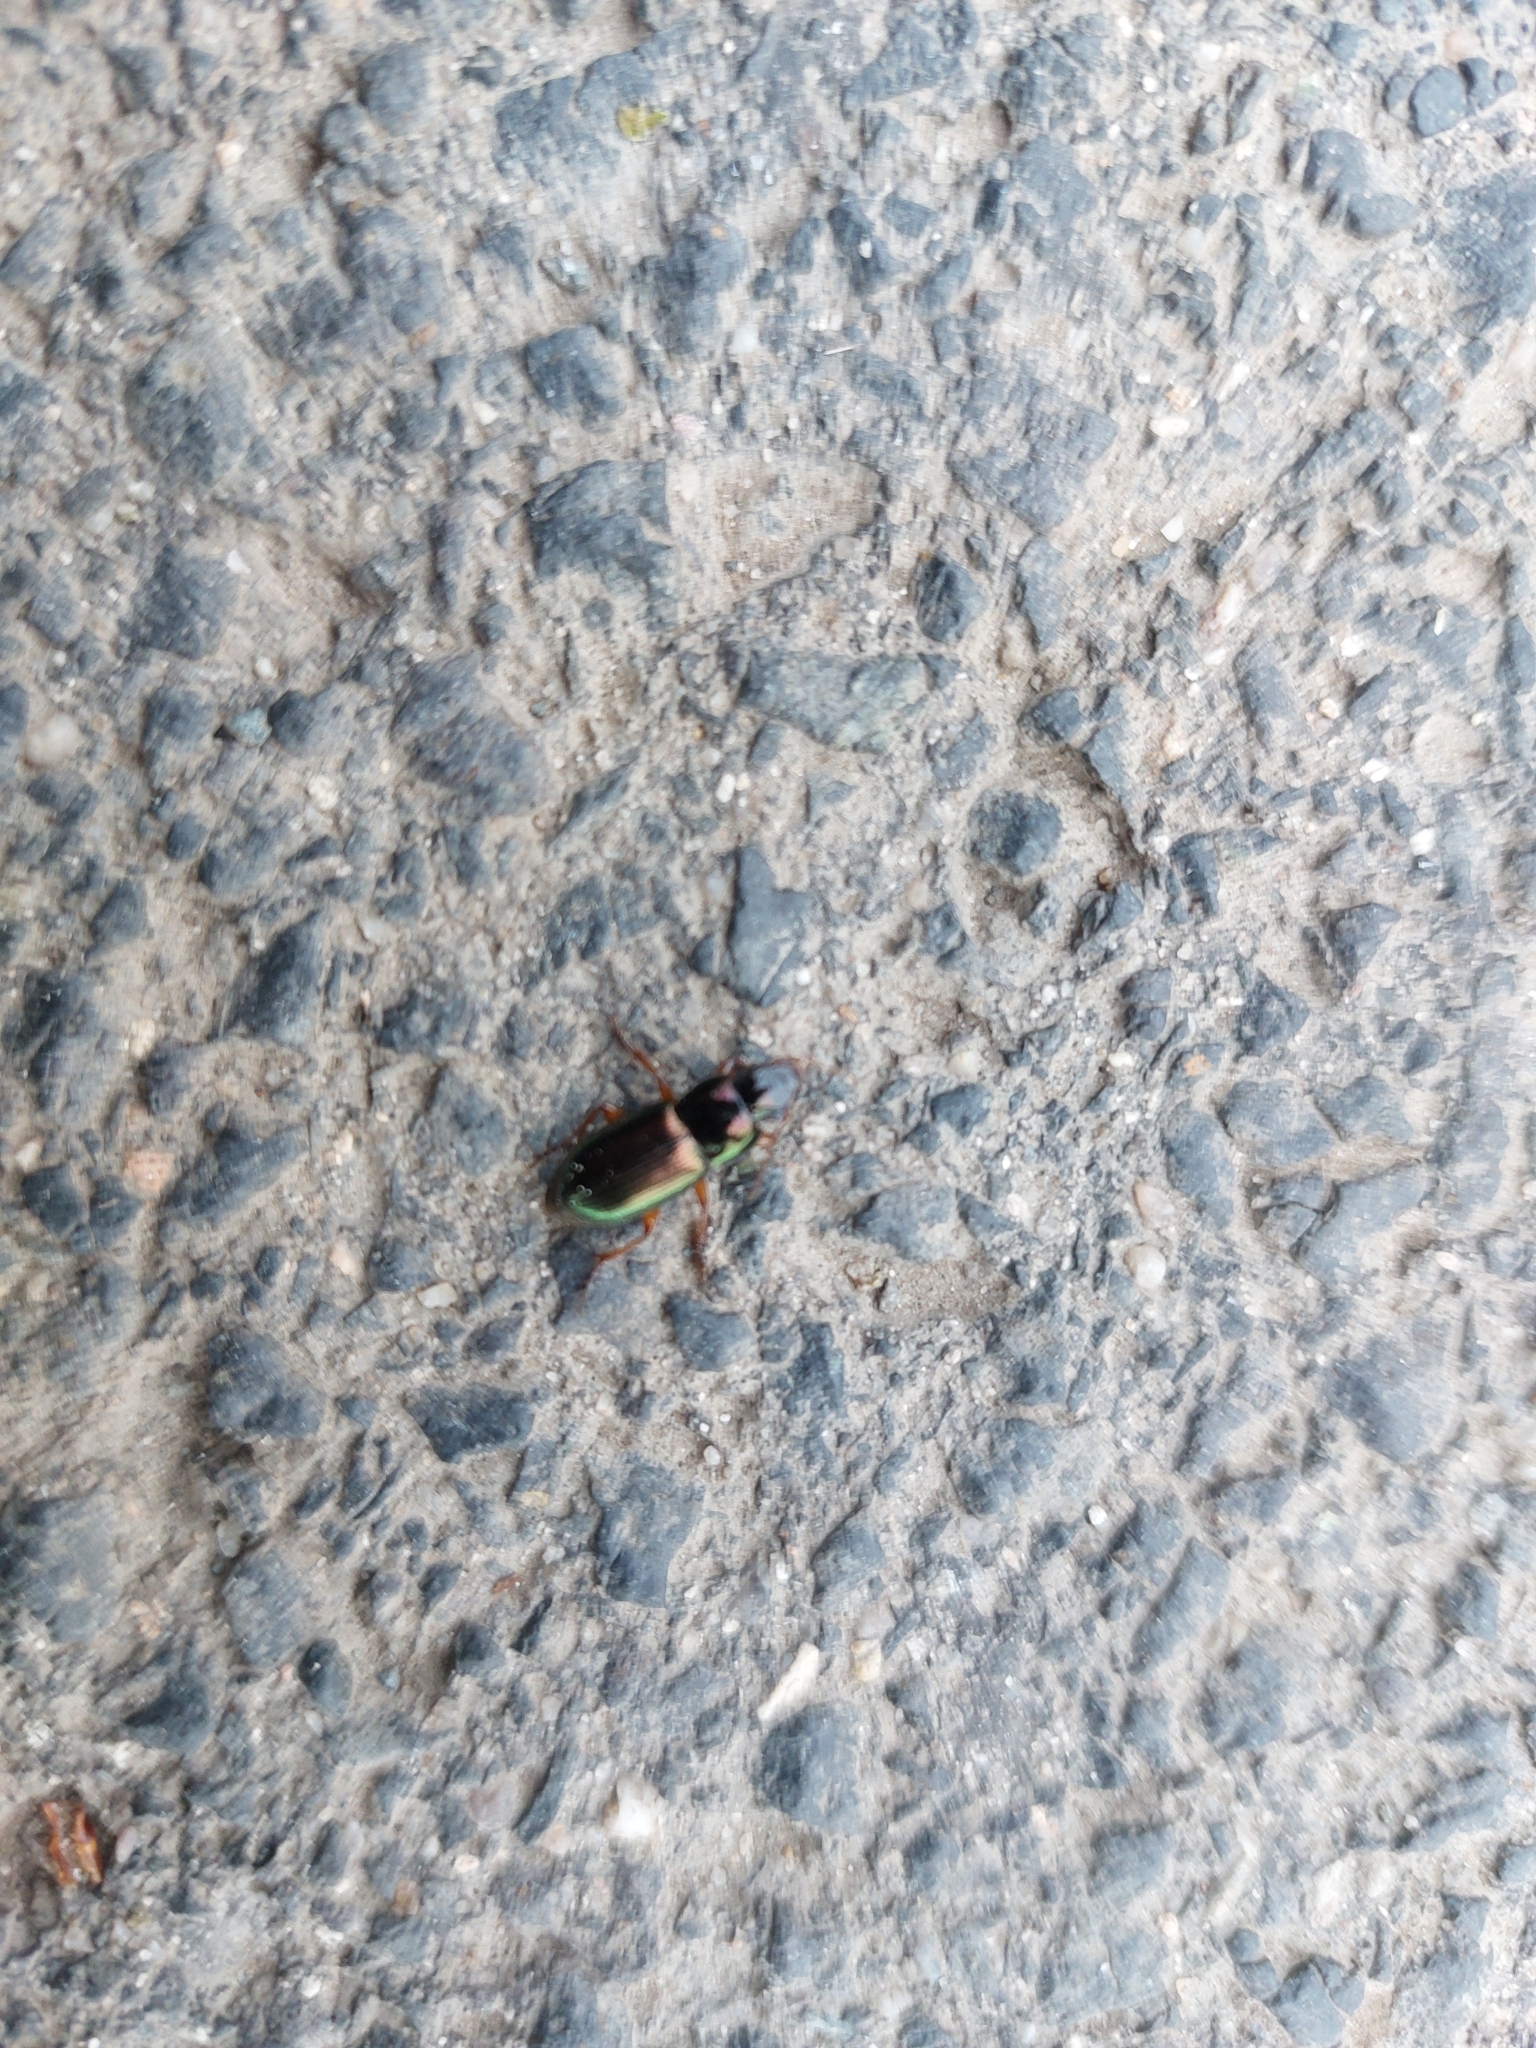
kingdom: Animalia
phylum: Arthropoda
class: Insecta
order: Coleoptera
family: Carabidae
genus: Harpalus
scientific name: Harpalus affinis
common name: Polychrome harp ground beetle
